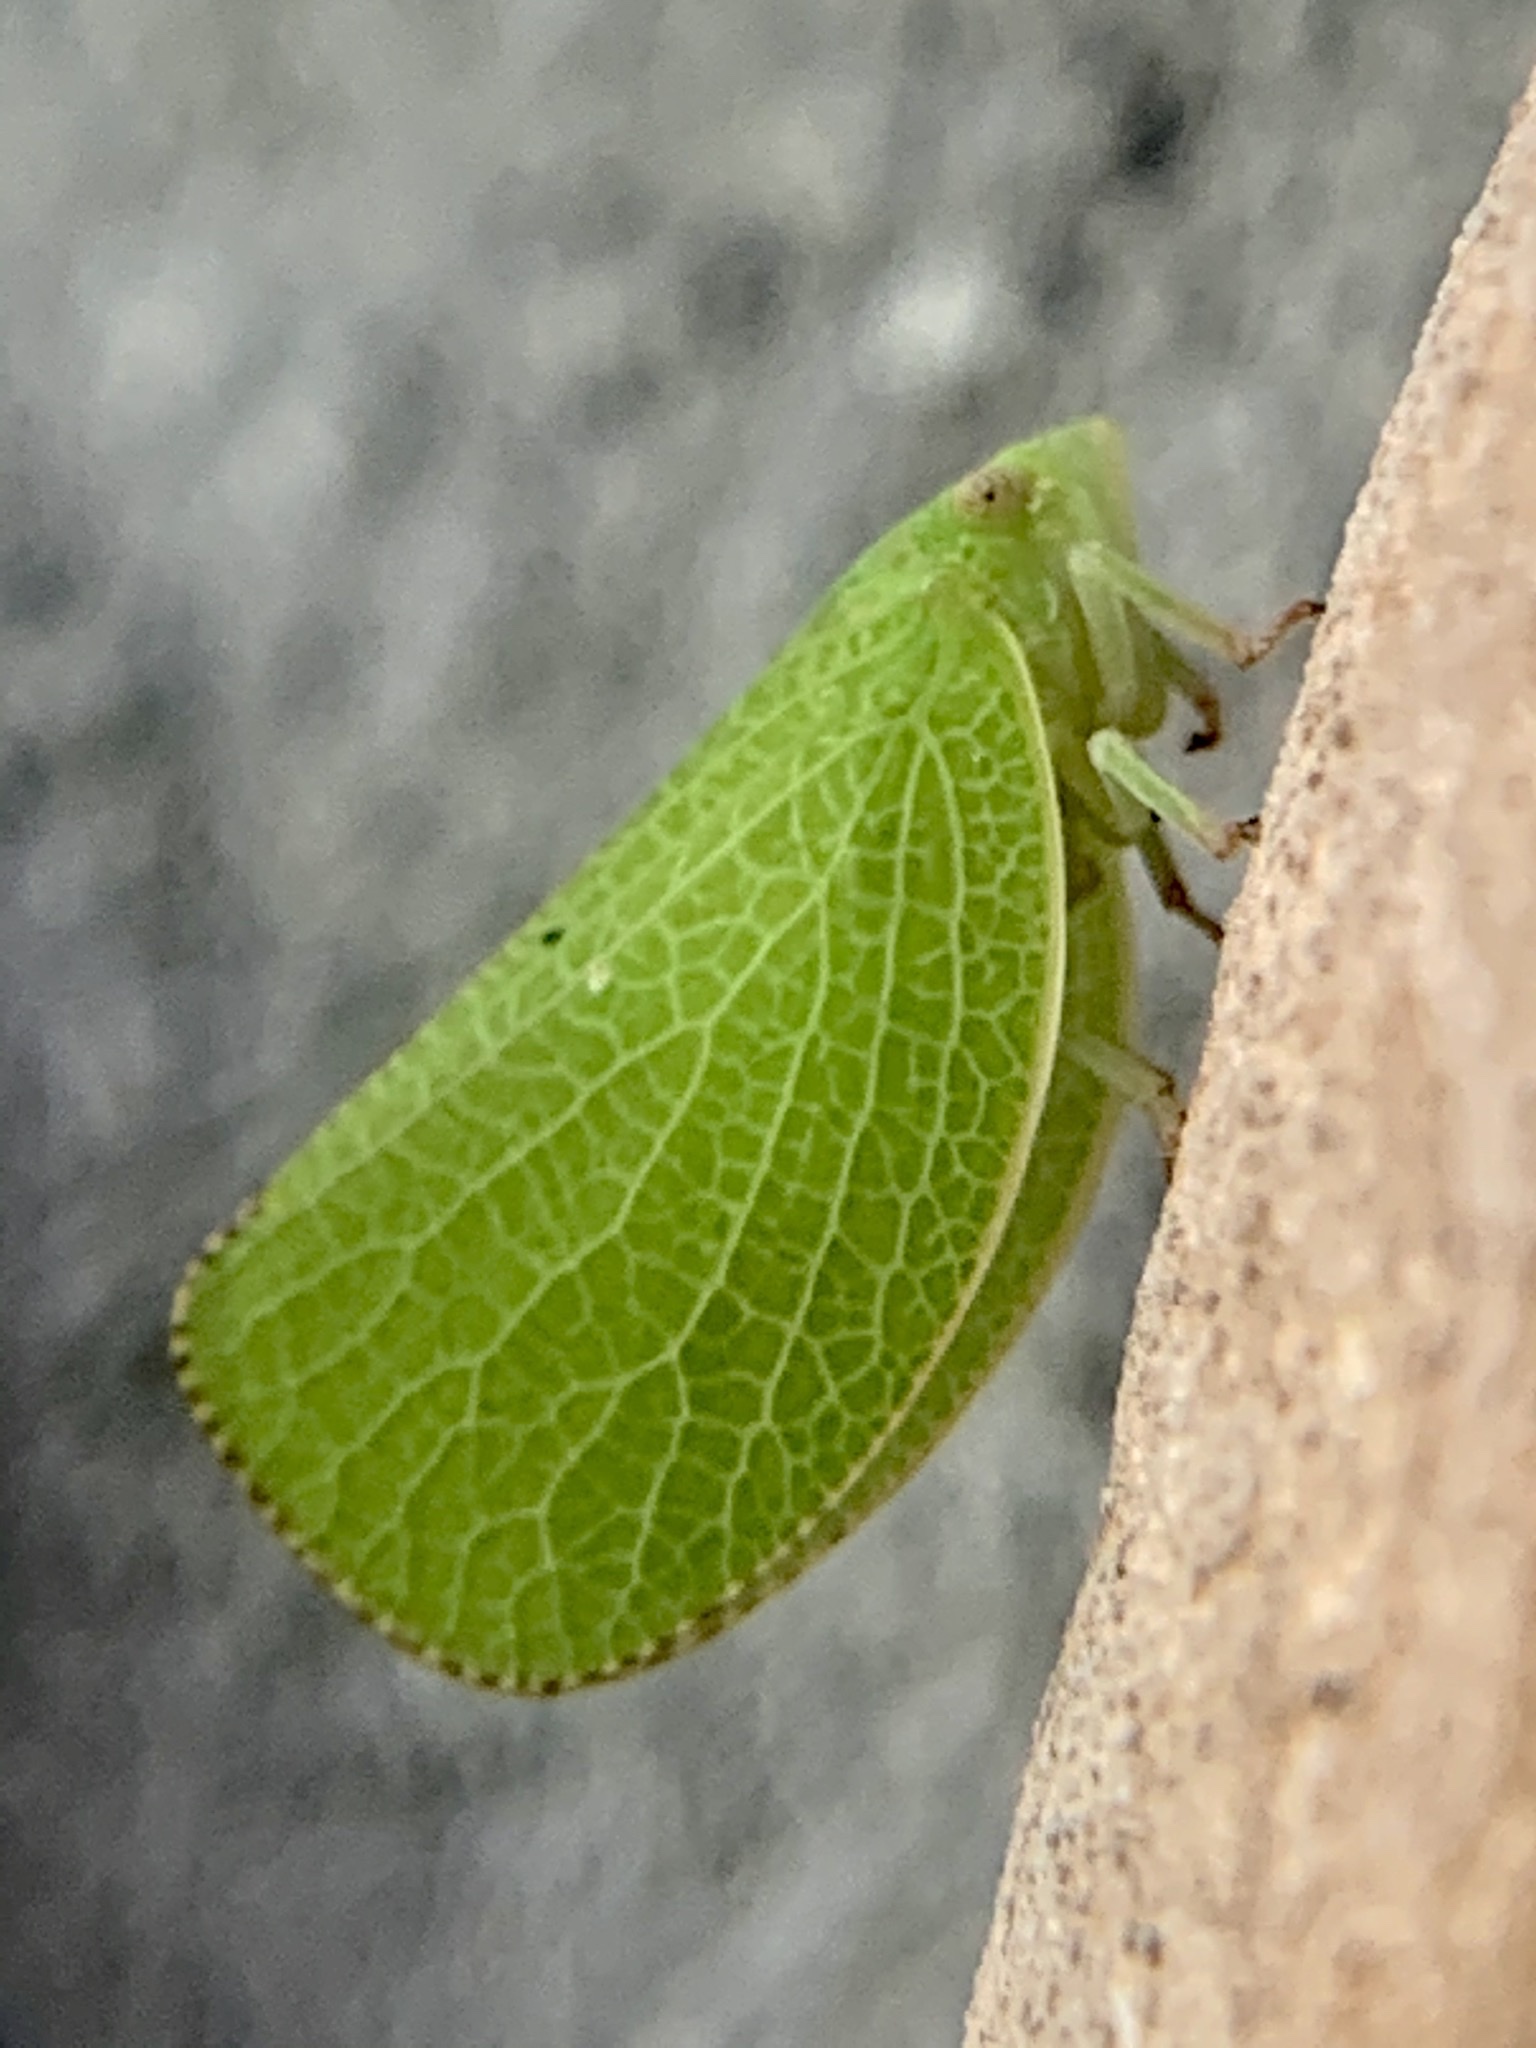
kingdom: Animalia
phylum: Arthropoda
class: Insecta
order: Hemiptera
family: Acanaloniidae
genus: Acanalonia
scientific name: Acanalonia conica
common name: Green cone-headed planthopper
